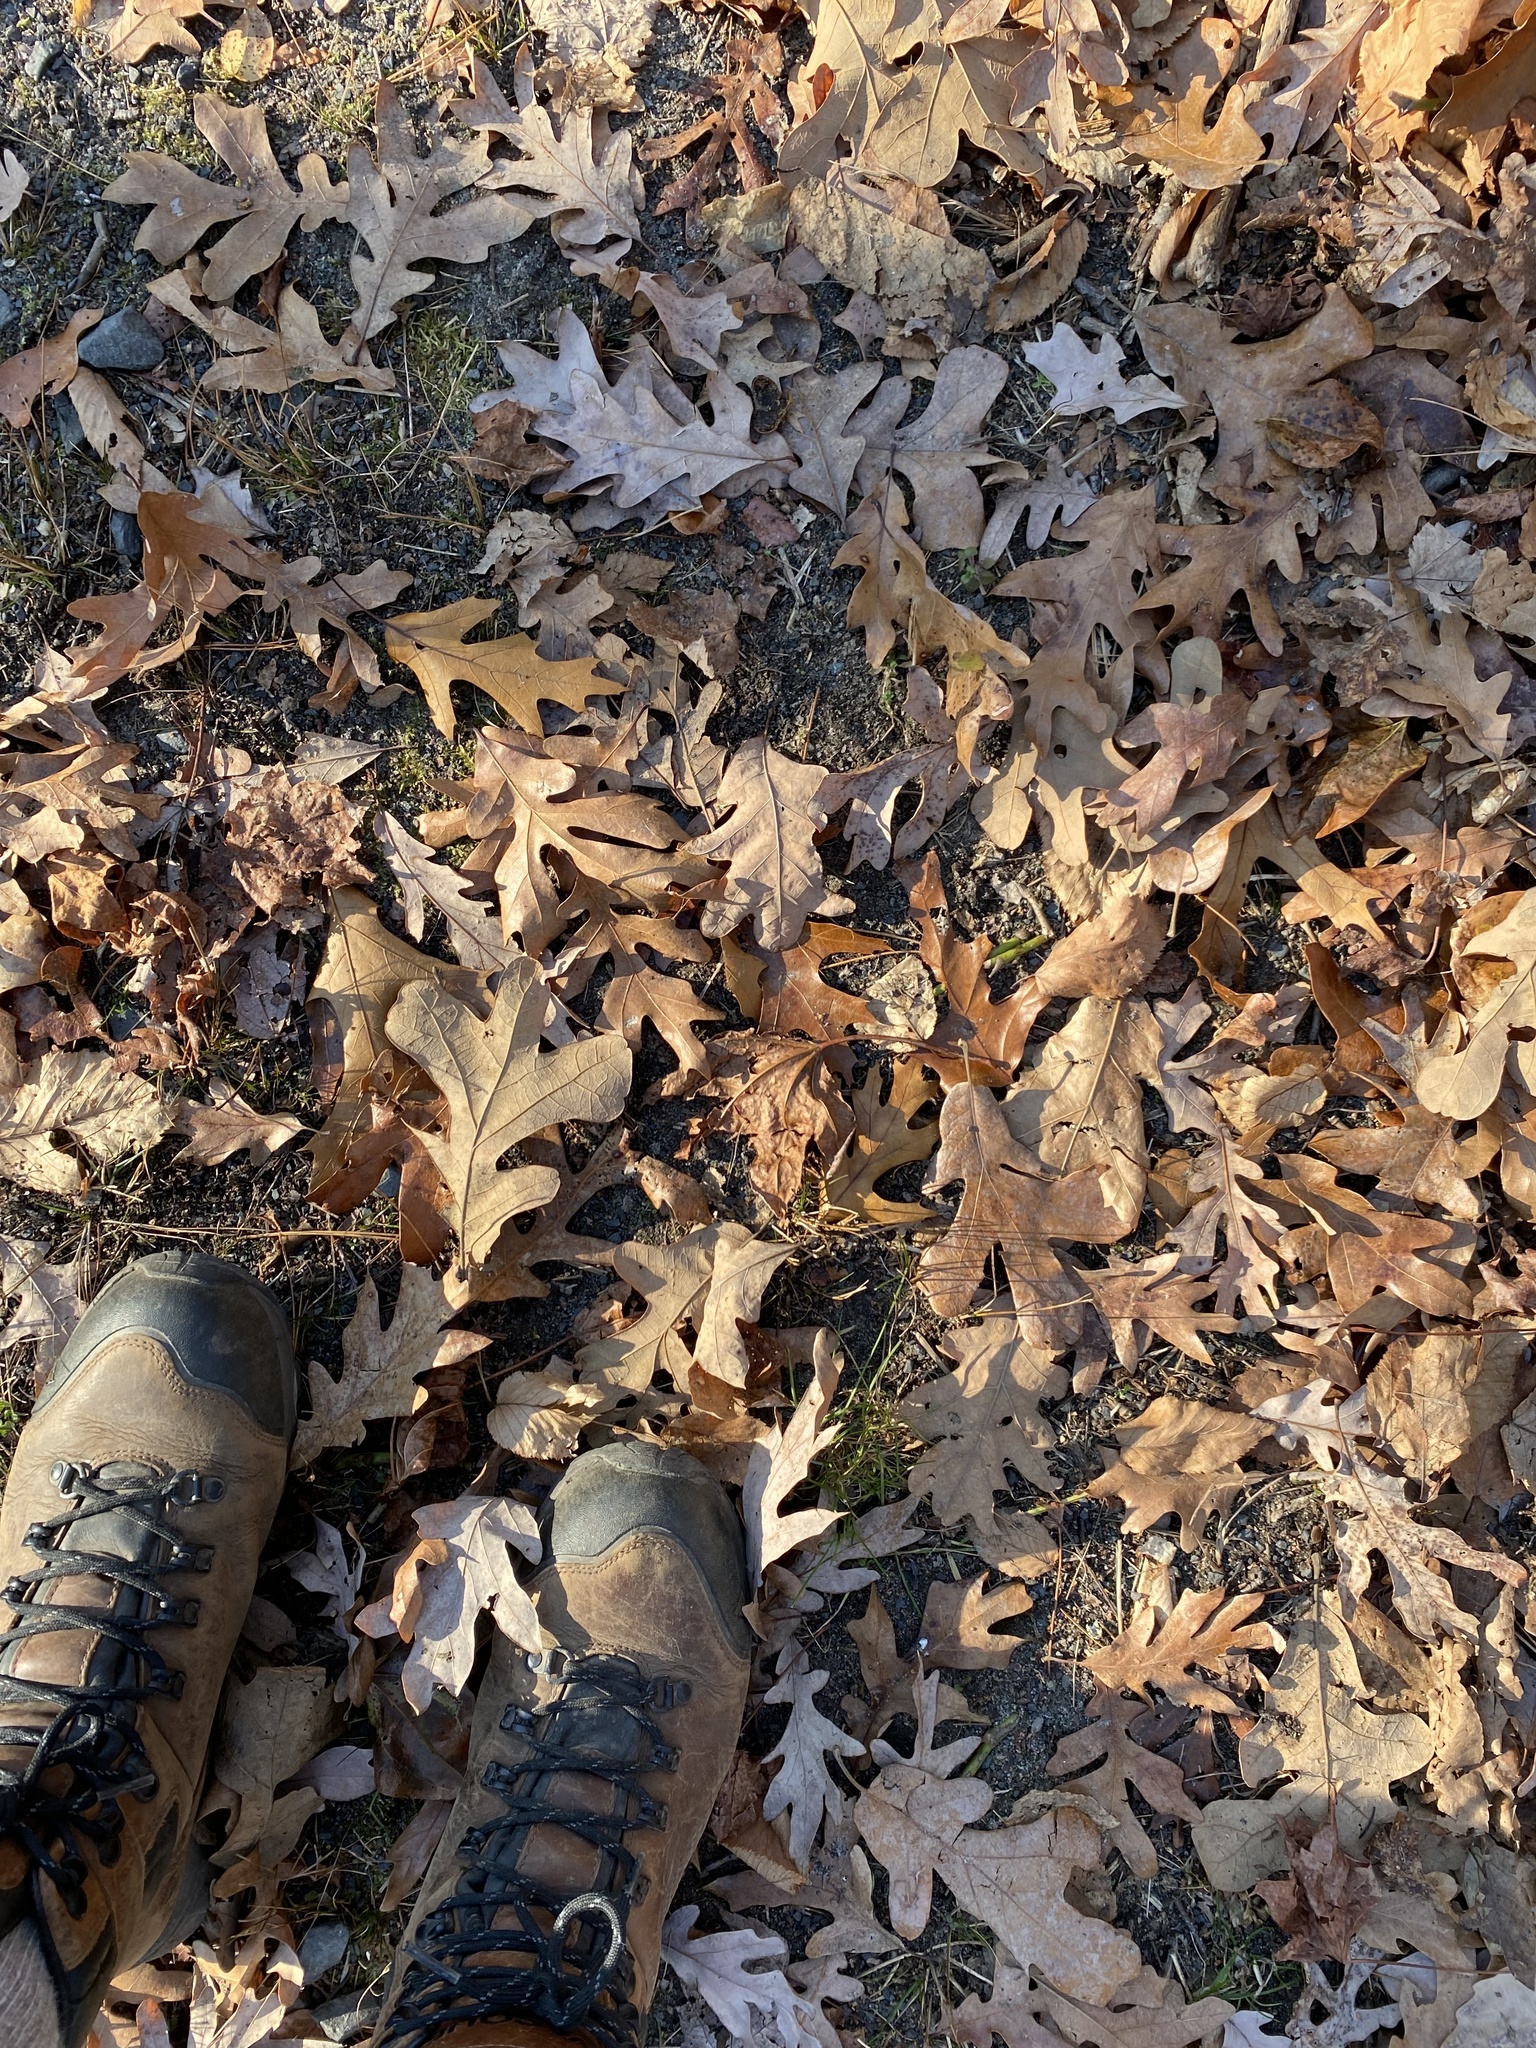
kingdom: Plantae
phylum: Tracheophyta
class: Magnoliopsida
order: Fagales
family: Fagaceae
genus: Quercus
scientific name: Quercus stellata
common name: Post oak
